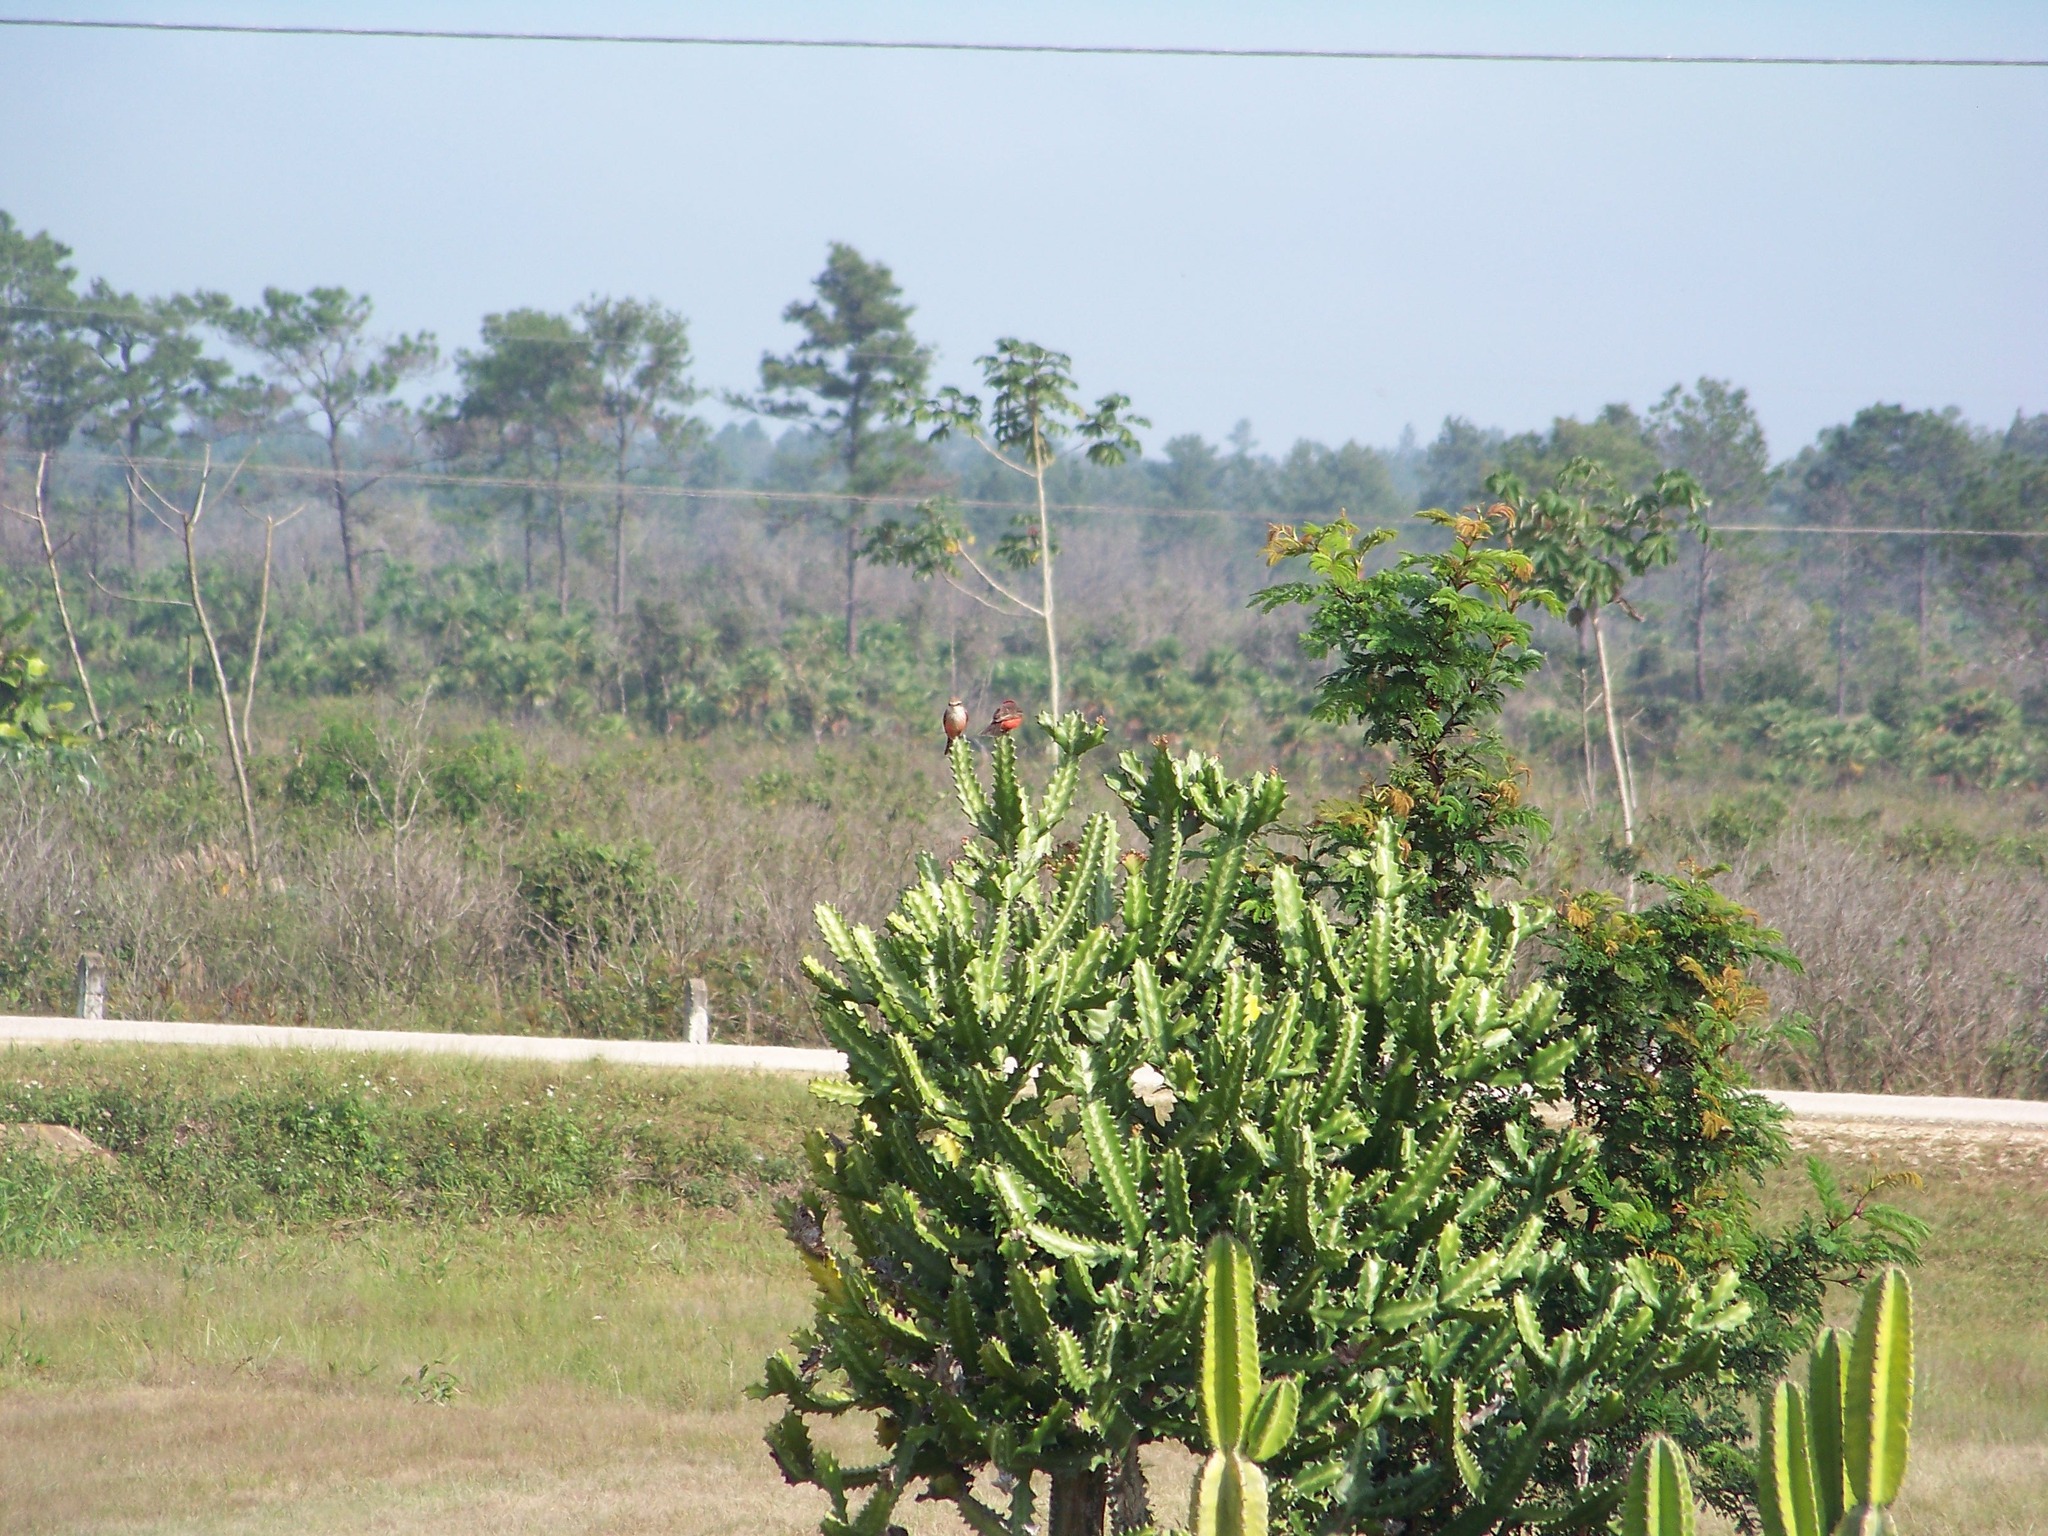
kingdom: Animalia
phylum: Chordata
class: Aves
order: Passeriformes
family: Tyrannidae
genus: Pyrocephalus
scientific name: Pyrocephalus rubinus
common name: Vermilion flycatcher
